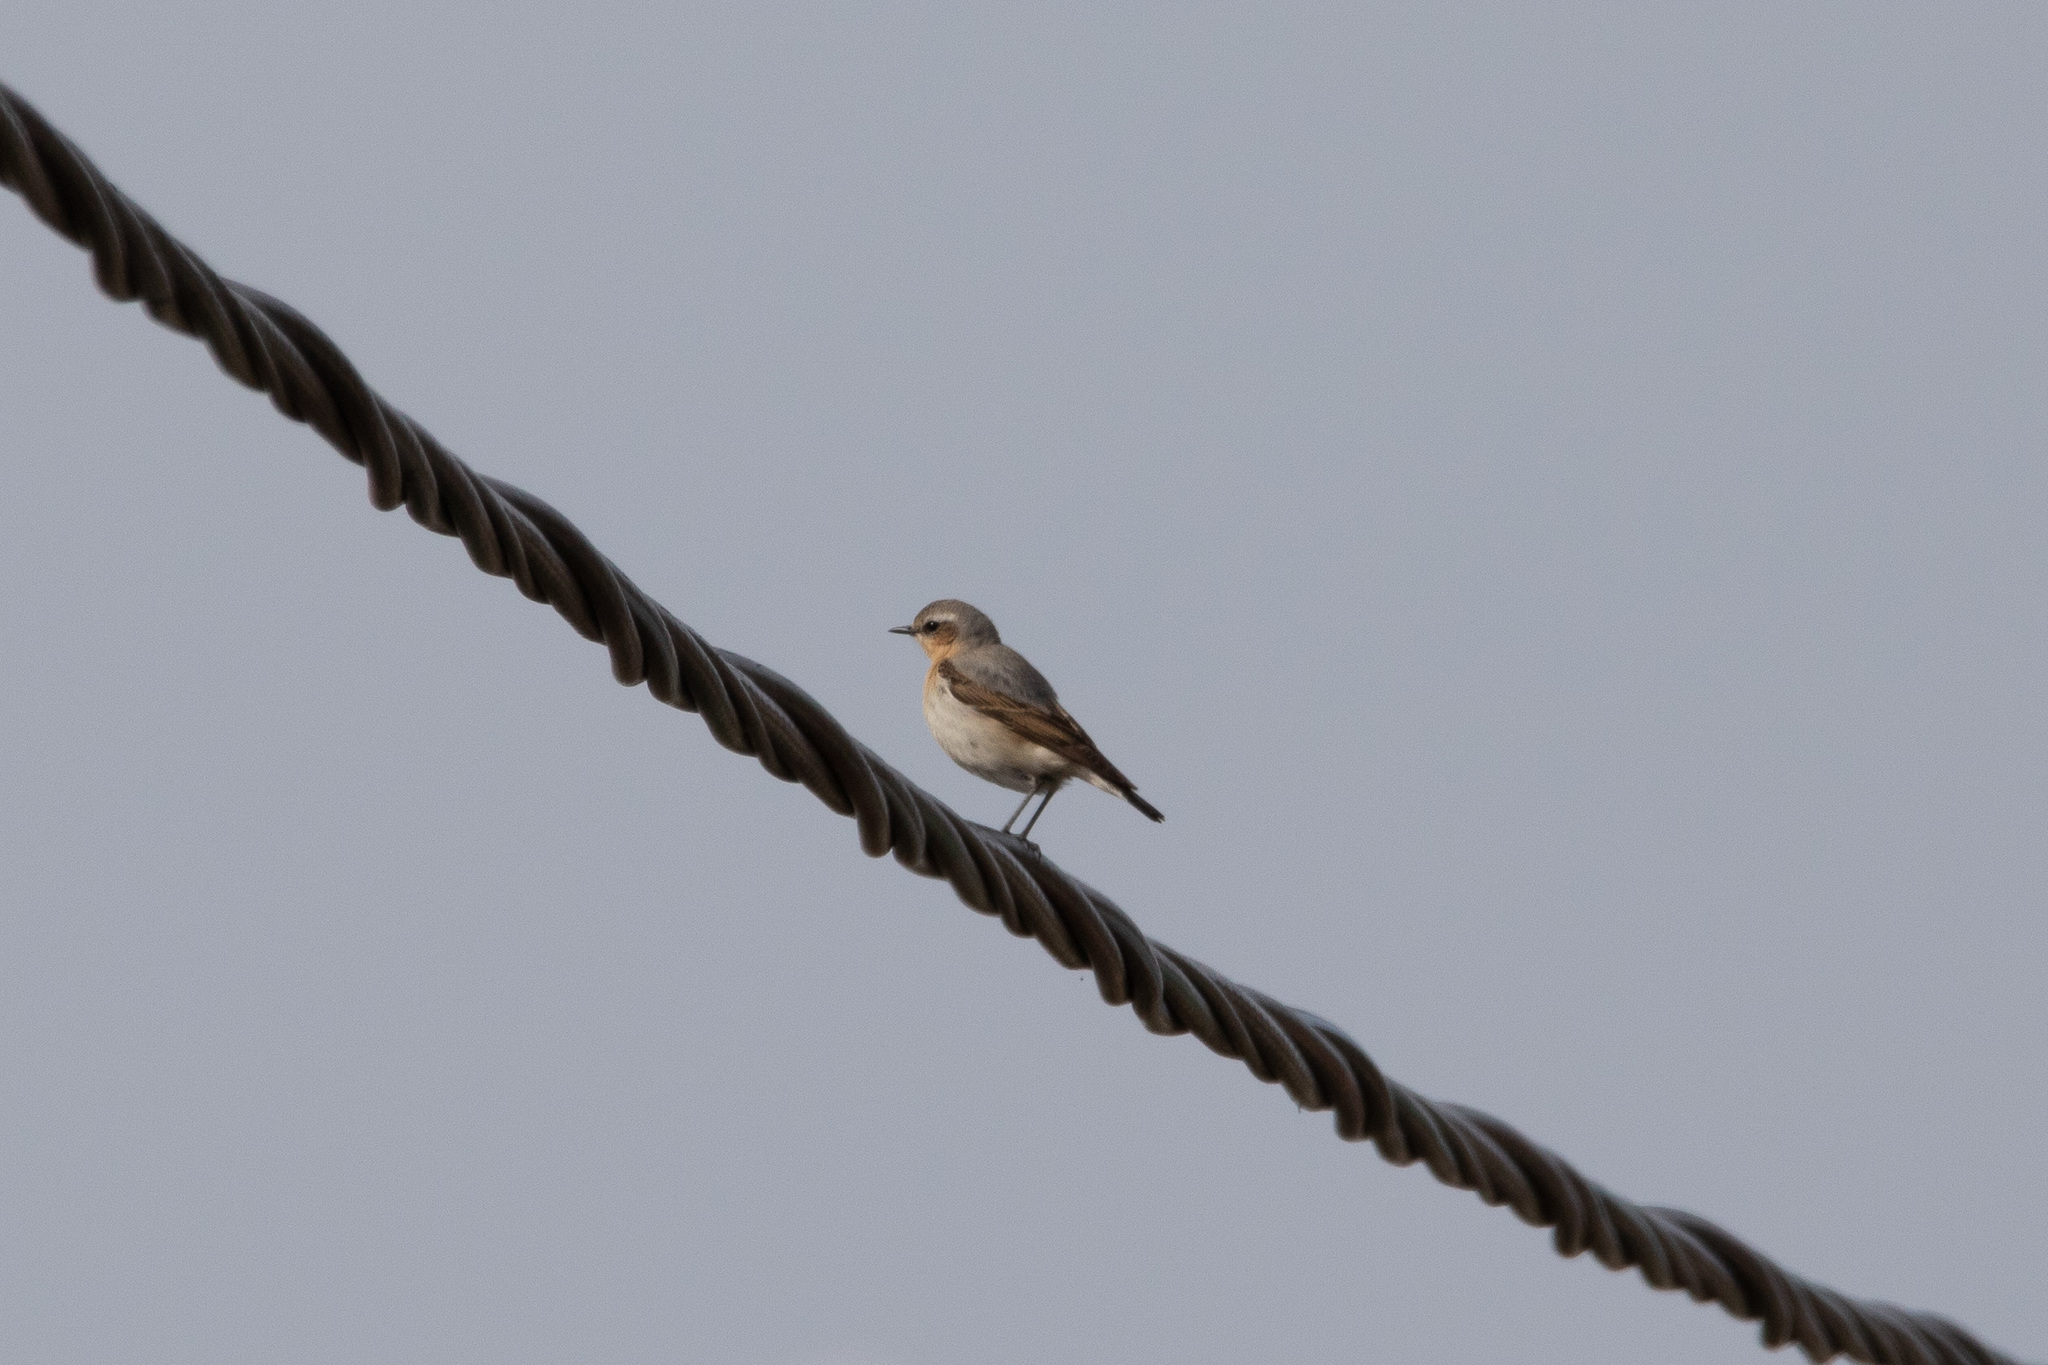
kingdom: Animalia
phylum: Chordata
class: Aves
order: Passeriformes
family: Muscicapidae
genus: Oenanthe
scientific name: Oenanthe oenanthe
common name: Northern wheatear
